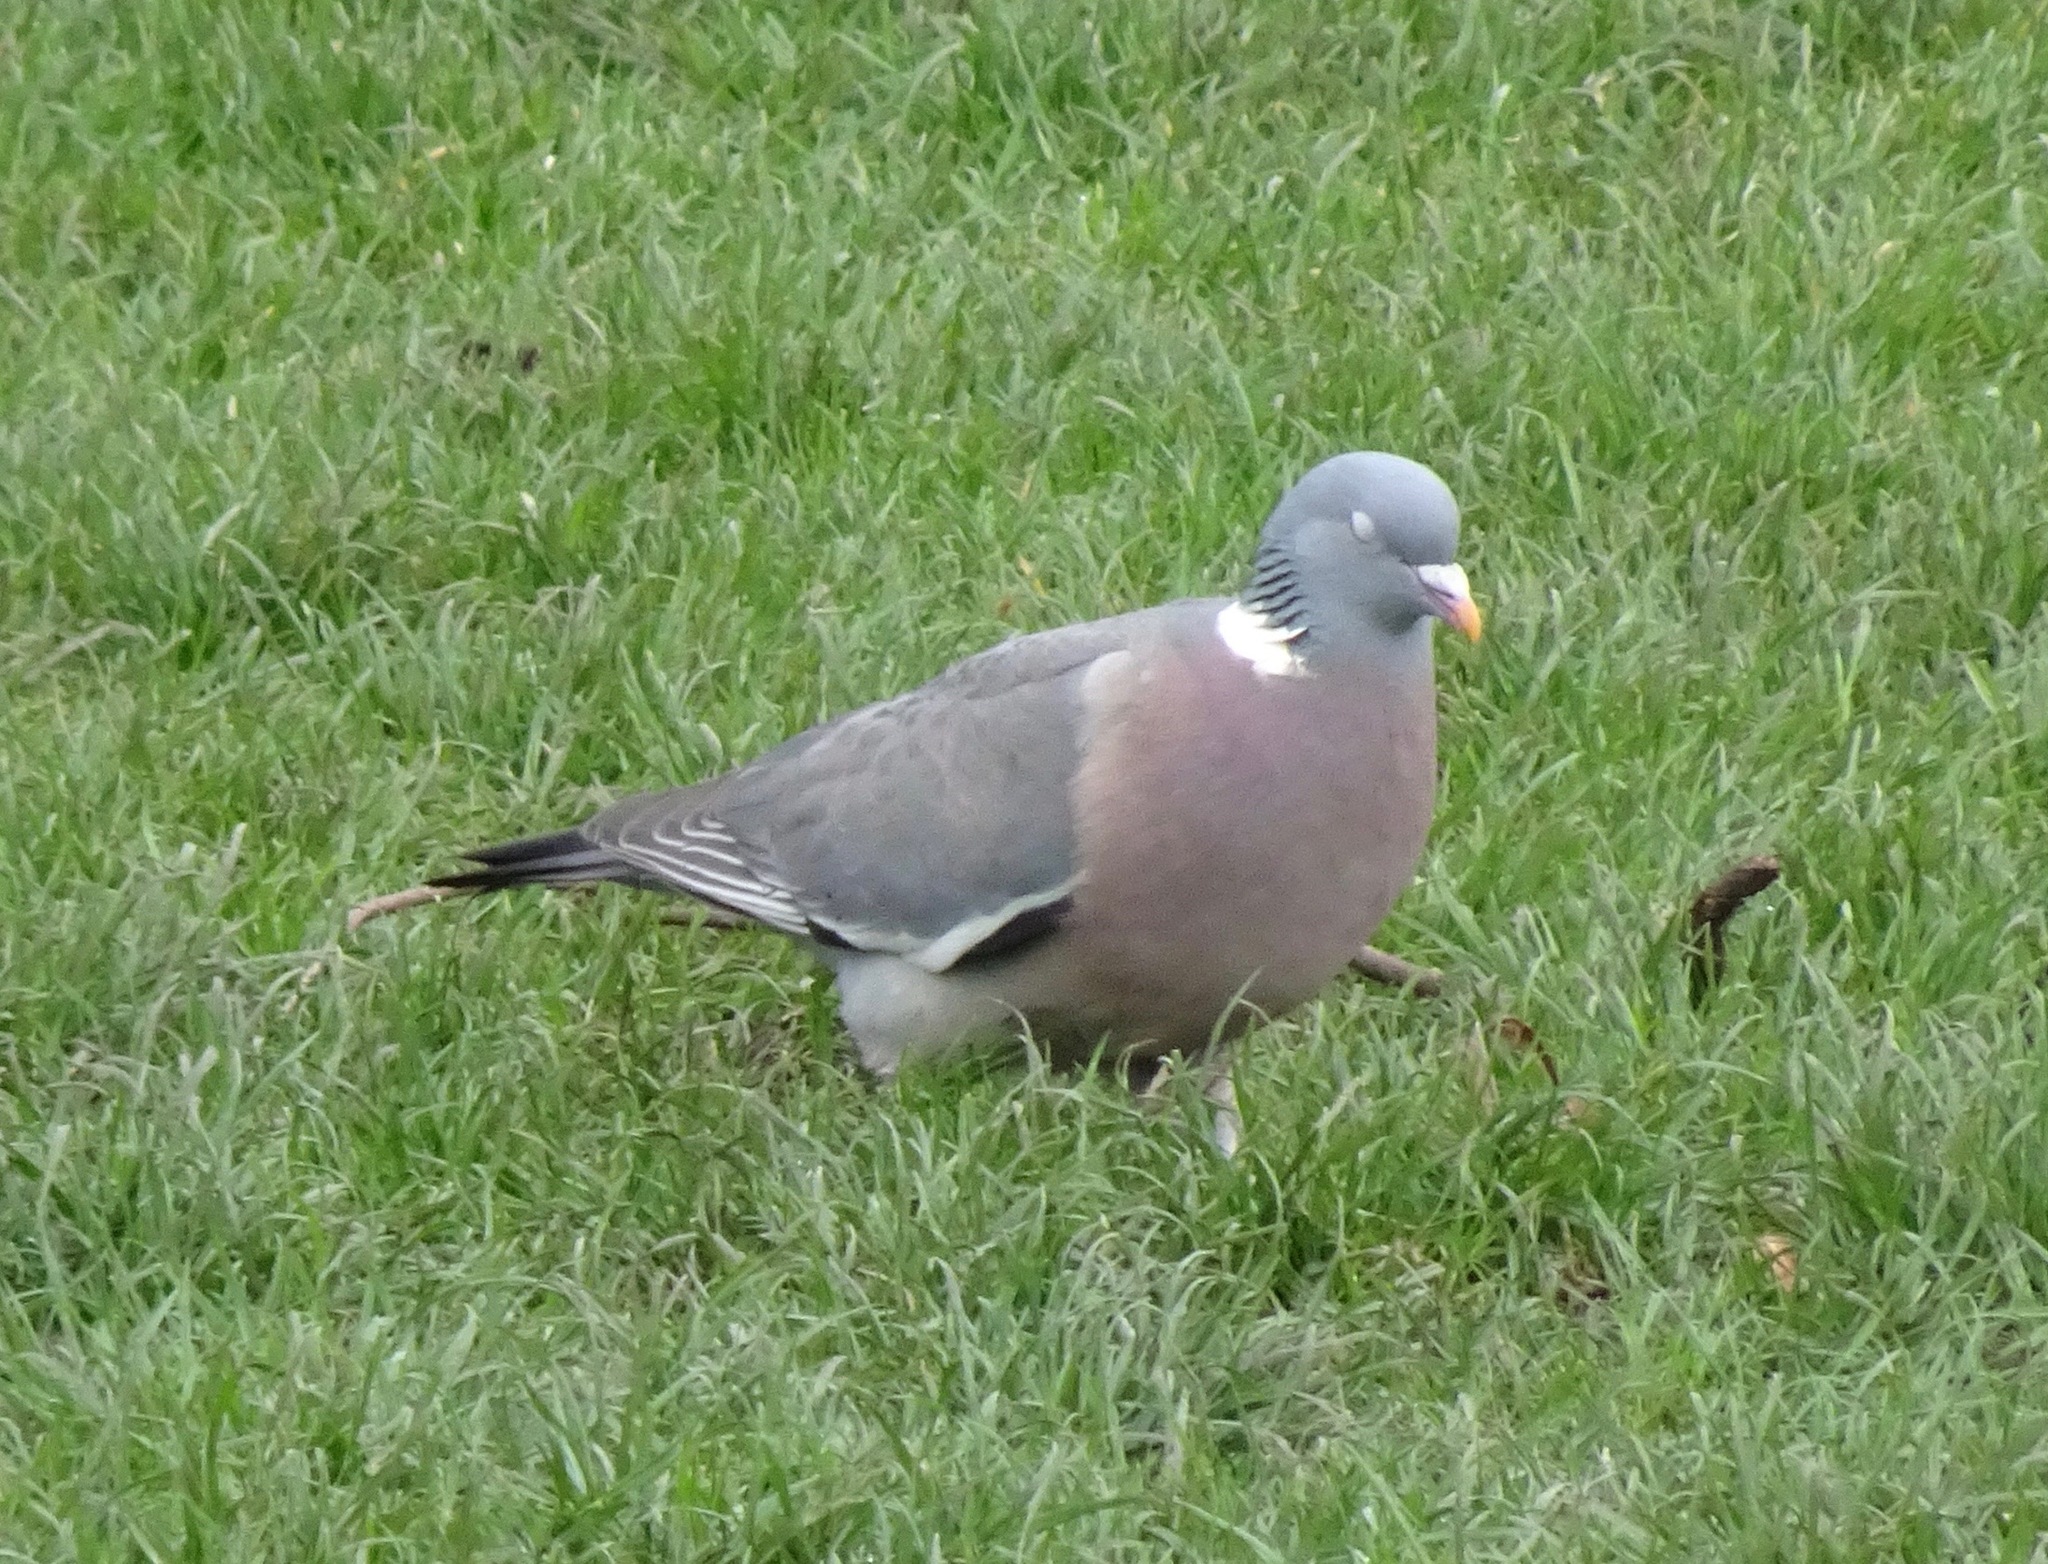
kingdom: Animalia
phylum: Chordata
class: Aves
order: Columbiformes
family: Columbidae
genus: Columba
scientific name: Columba palumbus
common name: Common wood pigeon
